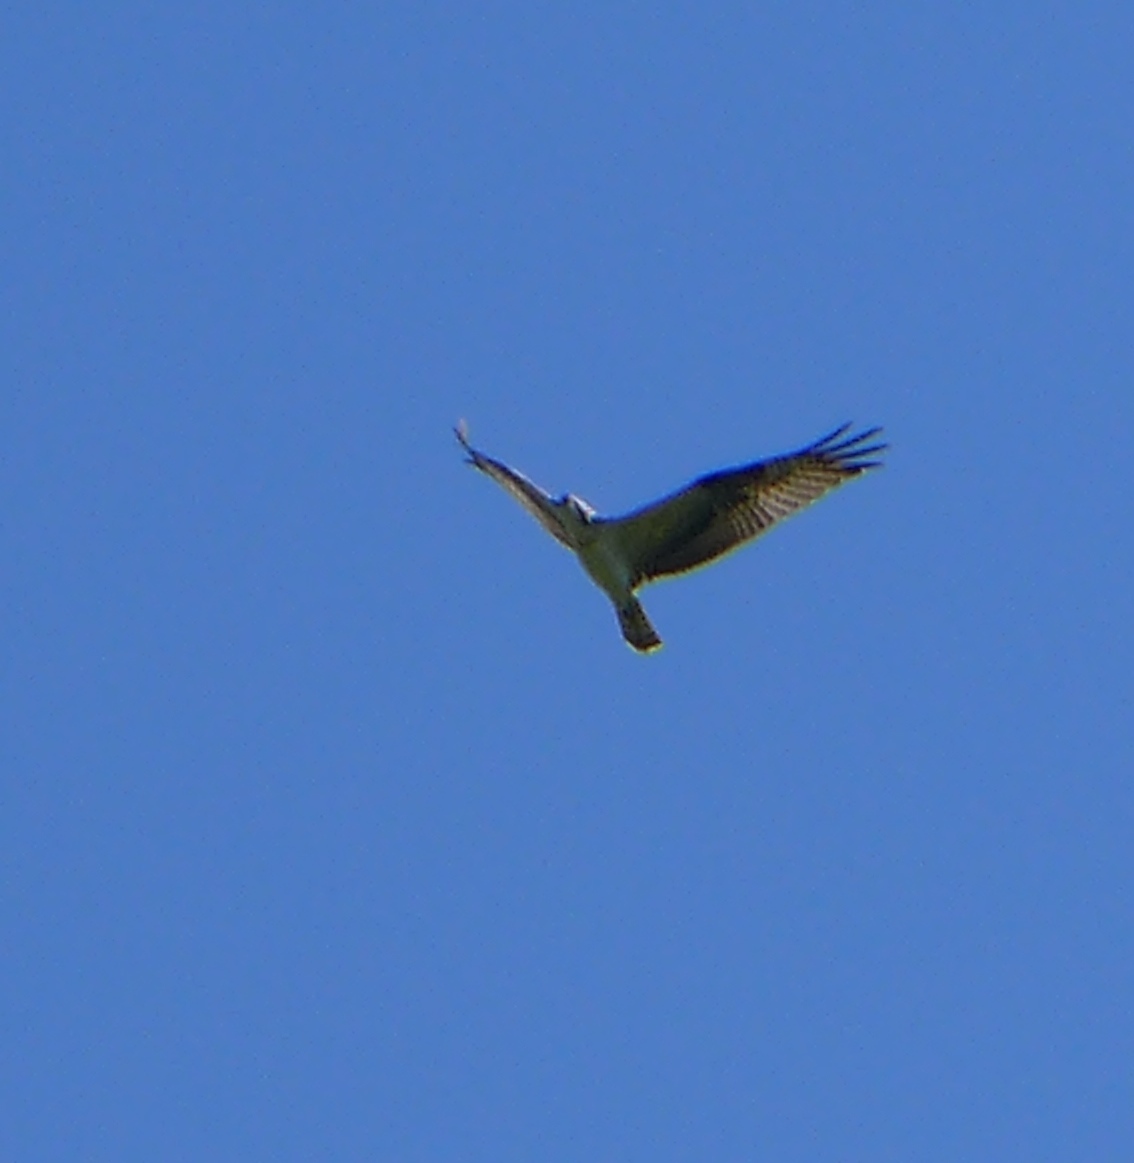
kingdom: Animalia
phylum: Chordata
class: Aves
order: Accipitriformes
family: Pandionidae
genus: Pandion
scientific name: Pandion haliaetus
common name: Osprey
